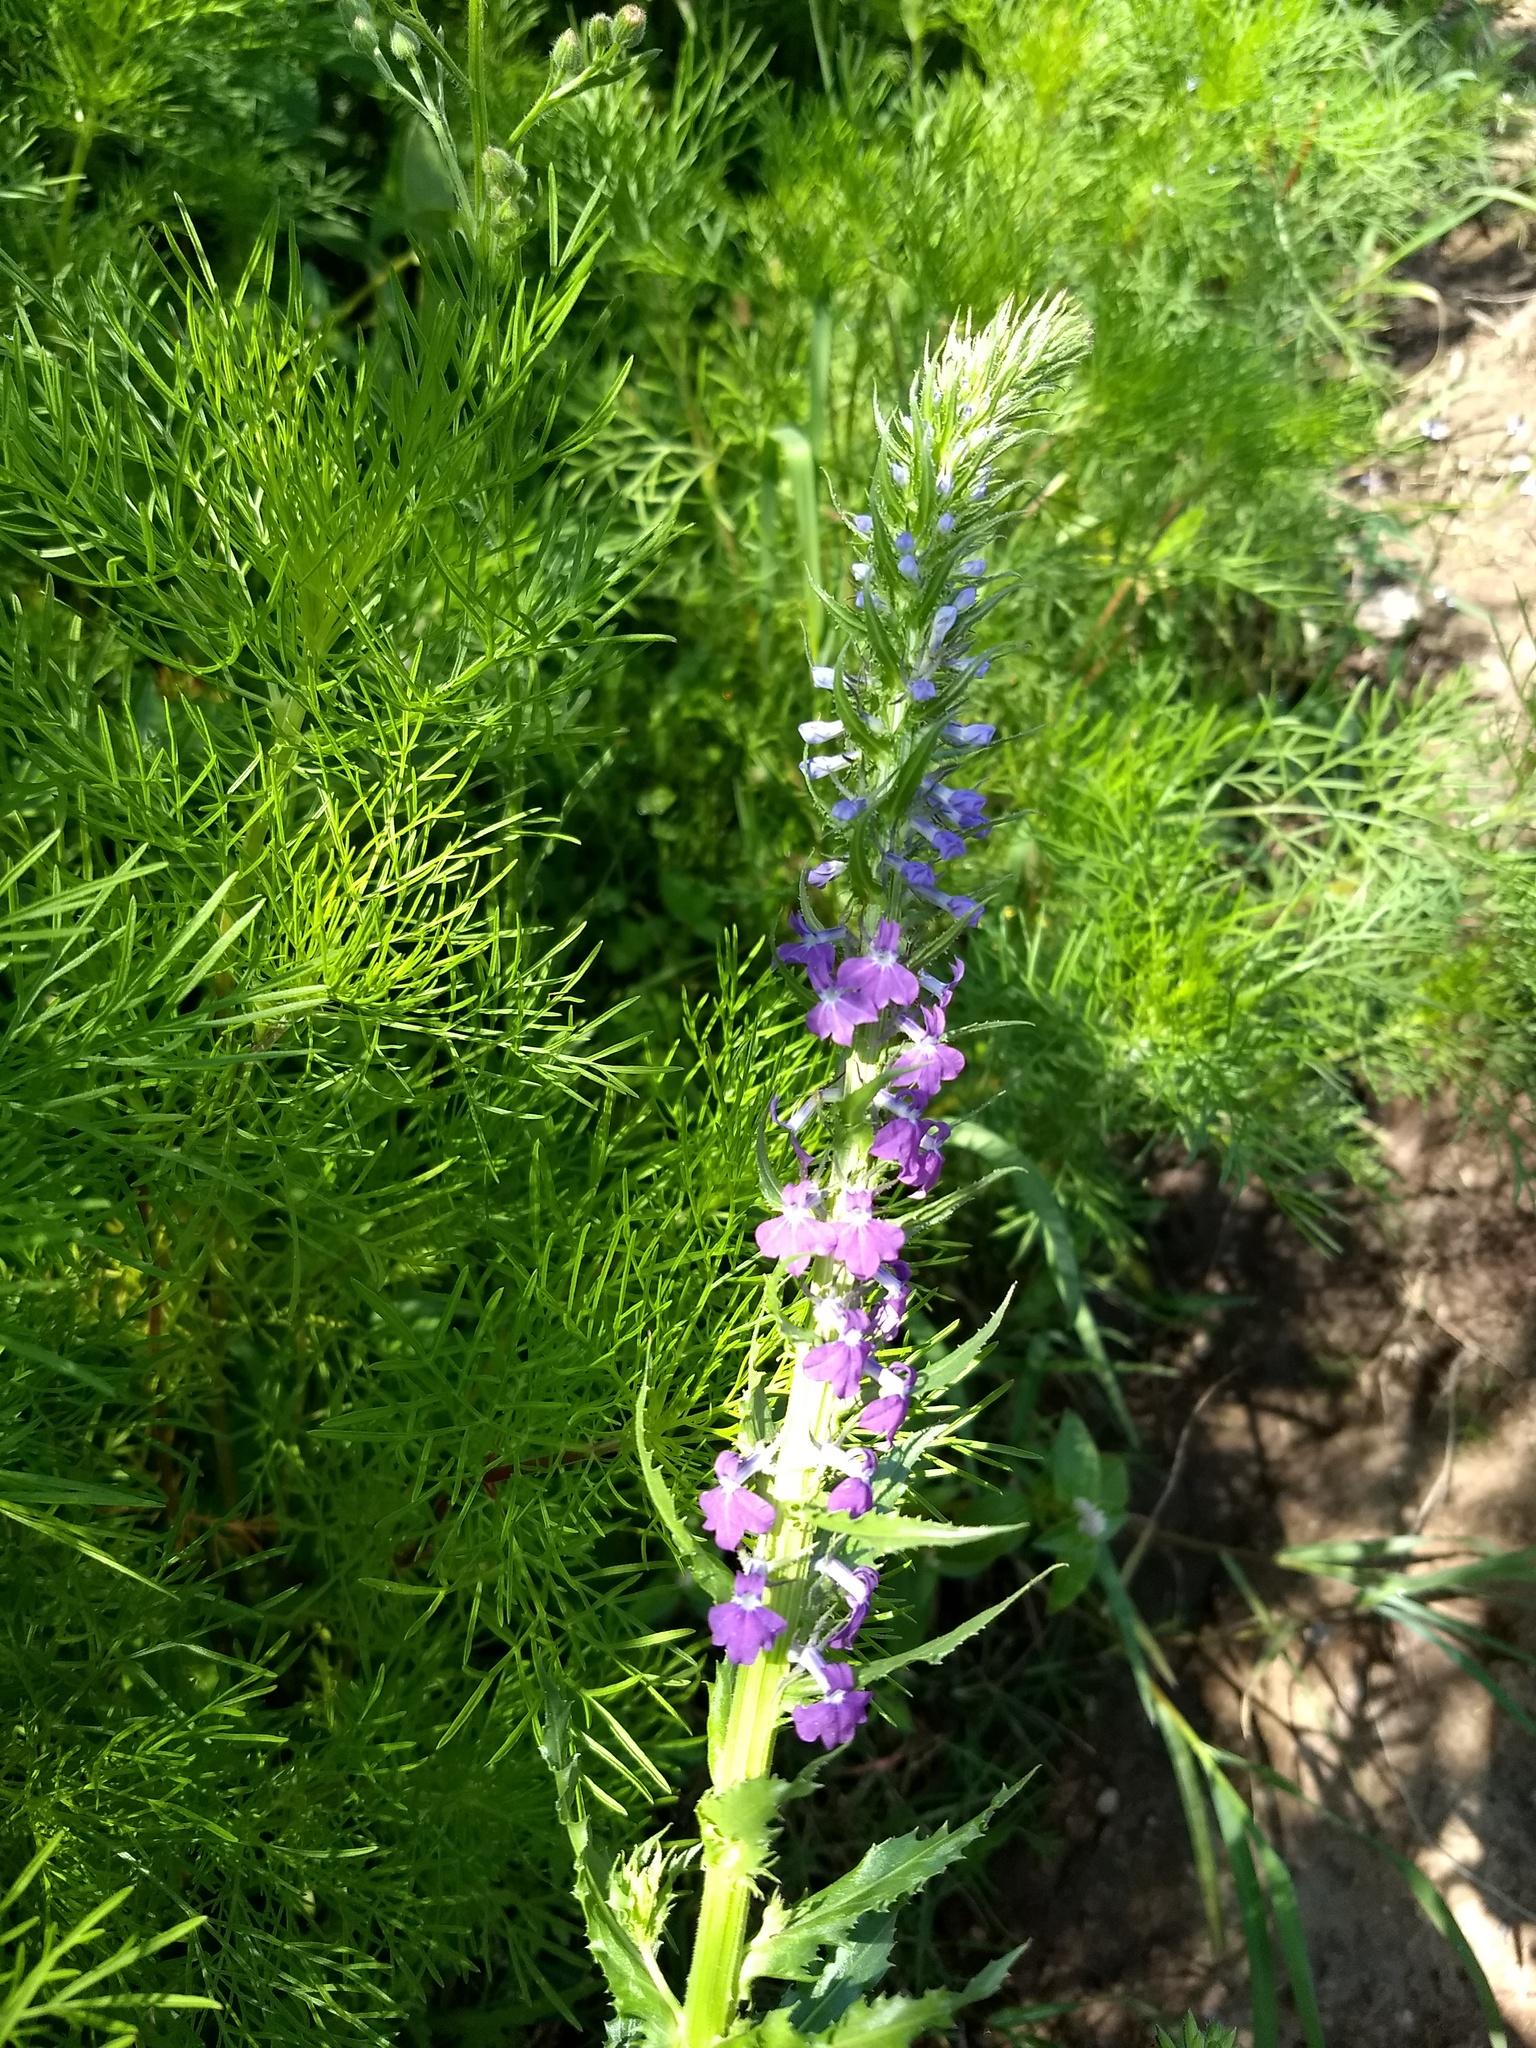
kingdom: Plantae
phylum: Tracheophyta
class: Magnoliopsida
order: Asterales
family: Campanulaceae
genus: Lobelia
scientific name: Lobelia fenestralis
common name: Leafy lobelia
